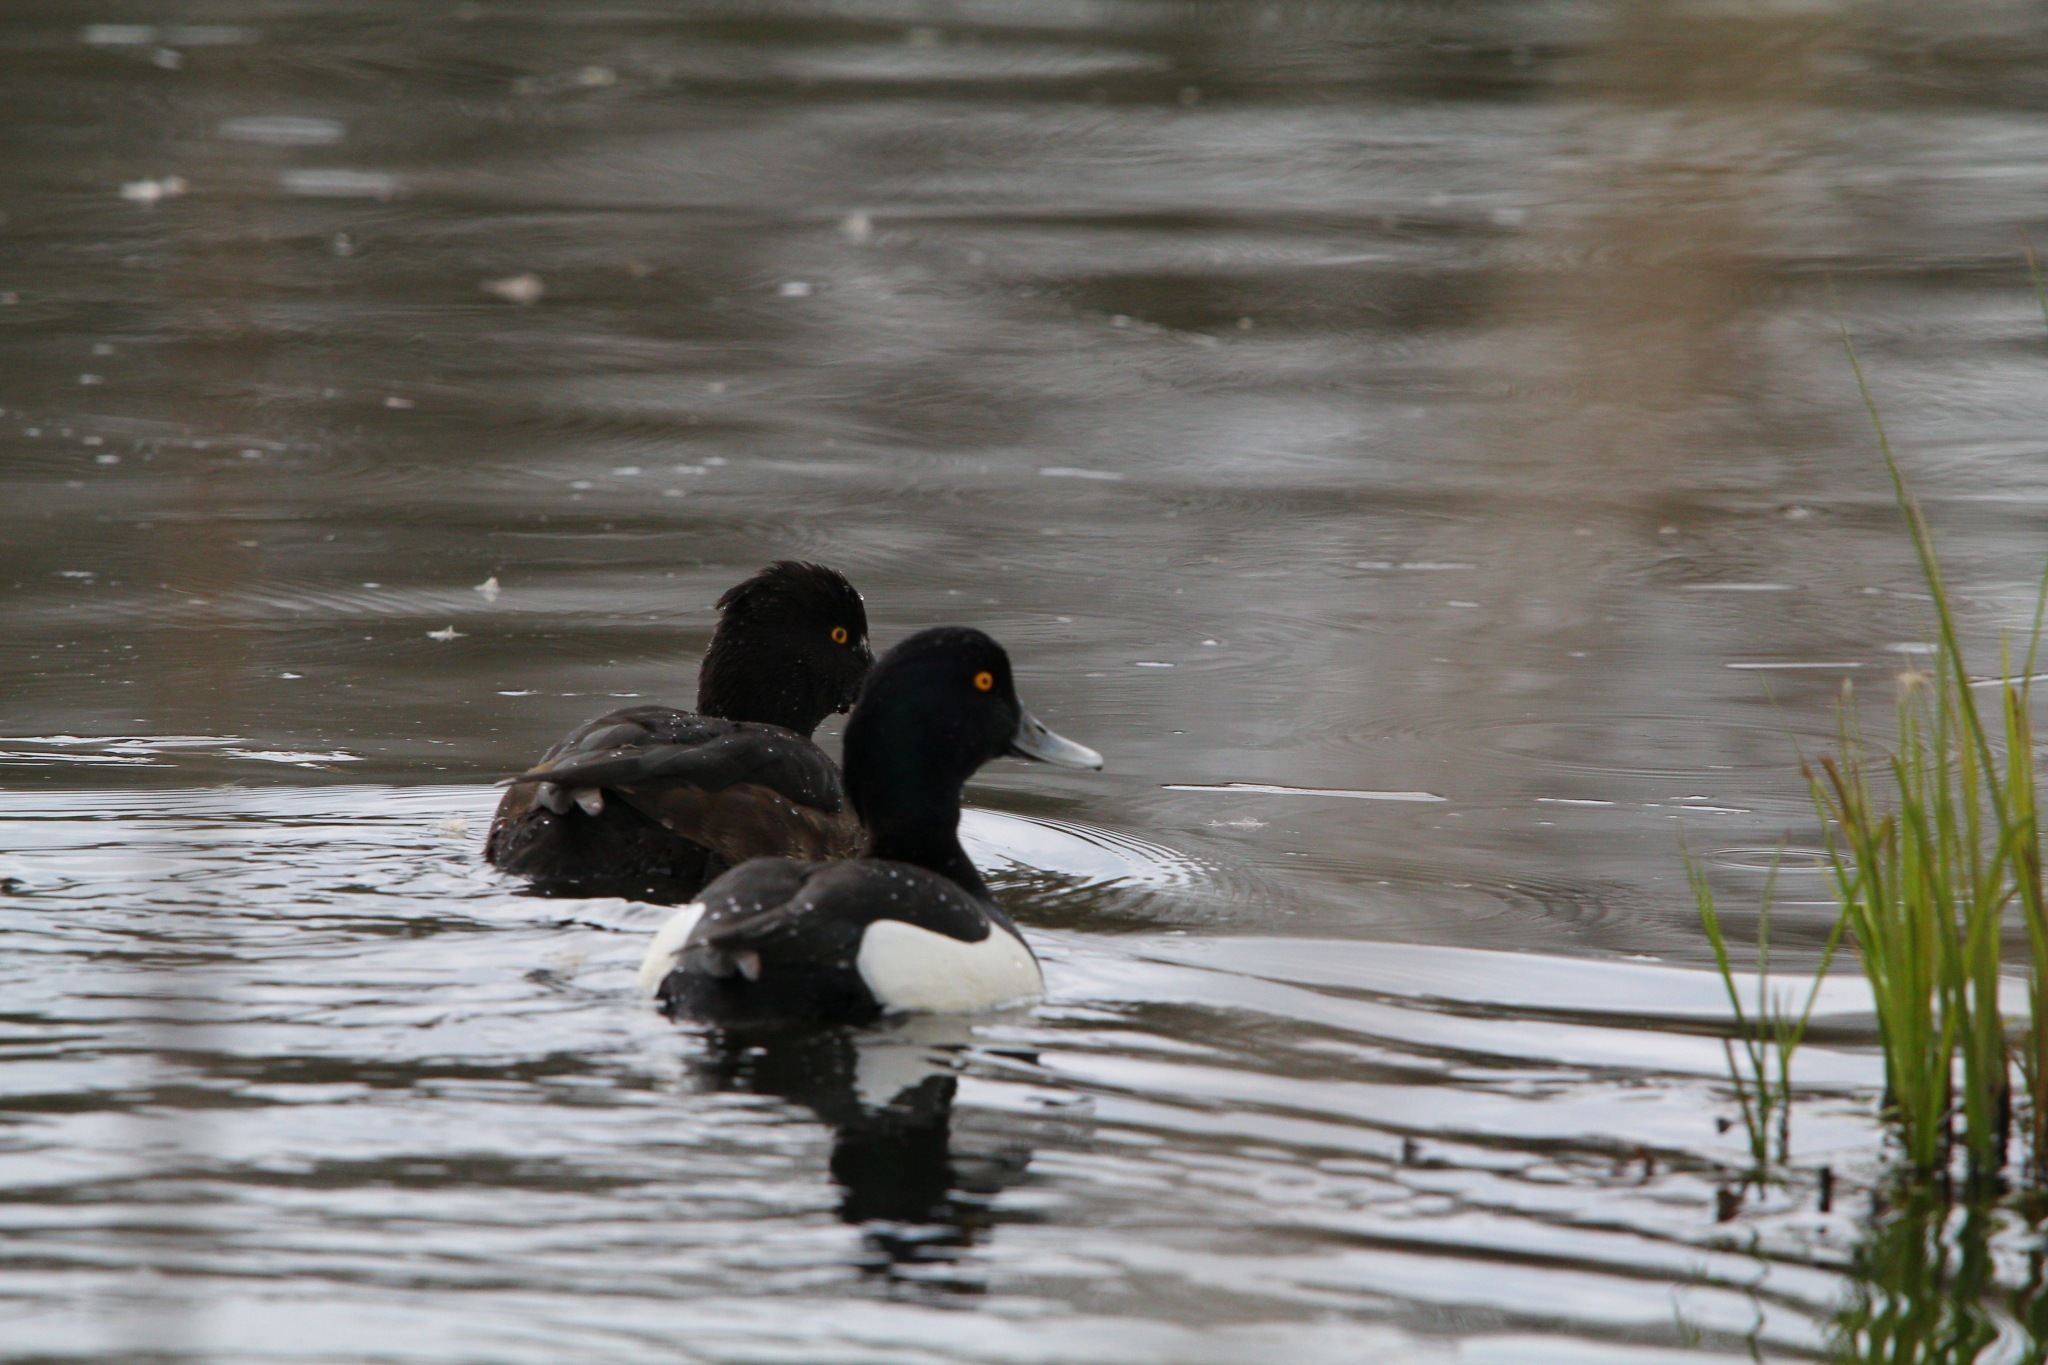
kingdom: Animalia
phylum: Chordata
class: Aves
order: Anseriformes
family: Anatidae
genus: Aythya
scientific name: Aythya fuligula
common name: Tufted duck
